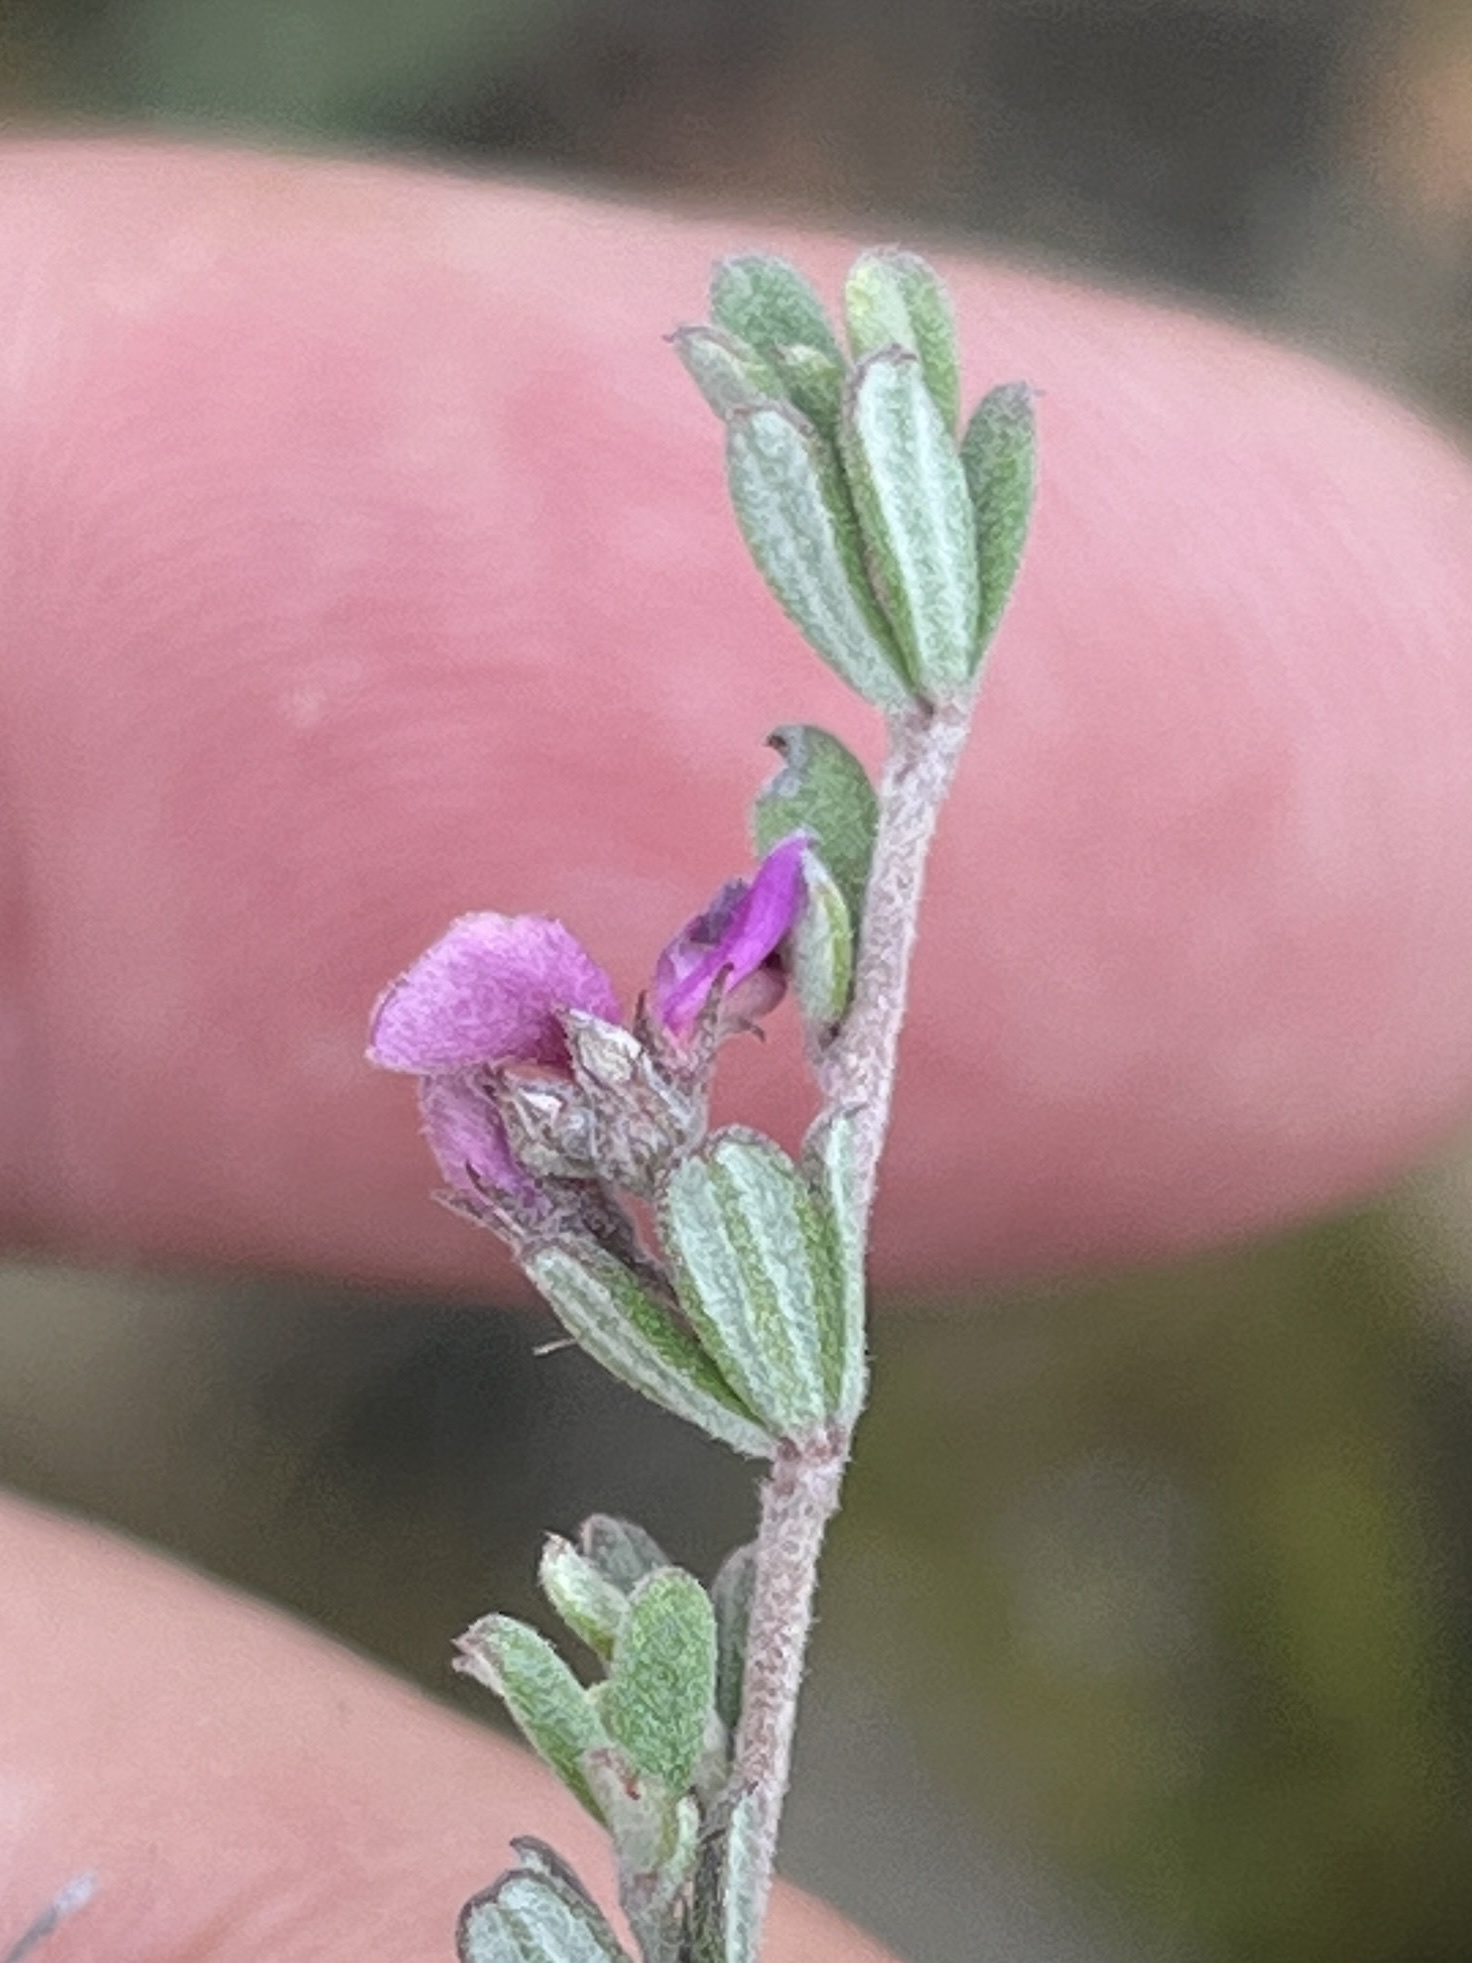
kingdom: Plantae
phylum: Tracheophyta
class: Magnoliopsida
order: Fabales
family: Fabaceae
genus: Indigofera
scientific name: Indigofera
